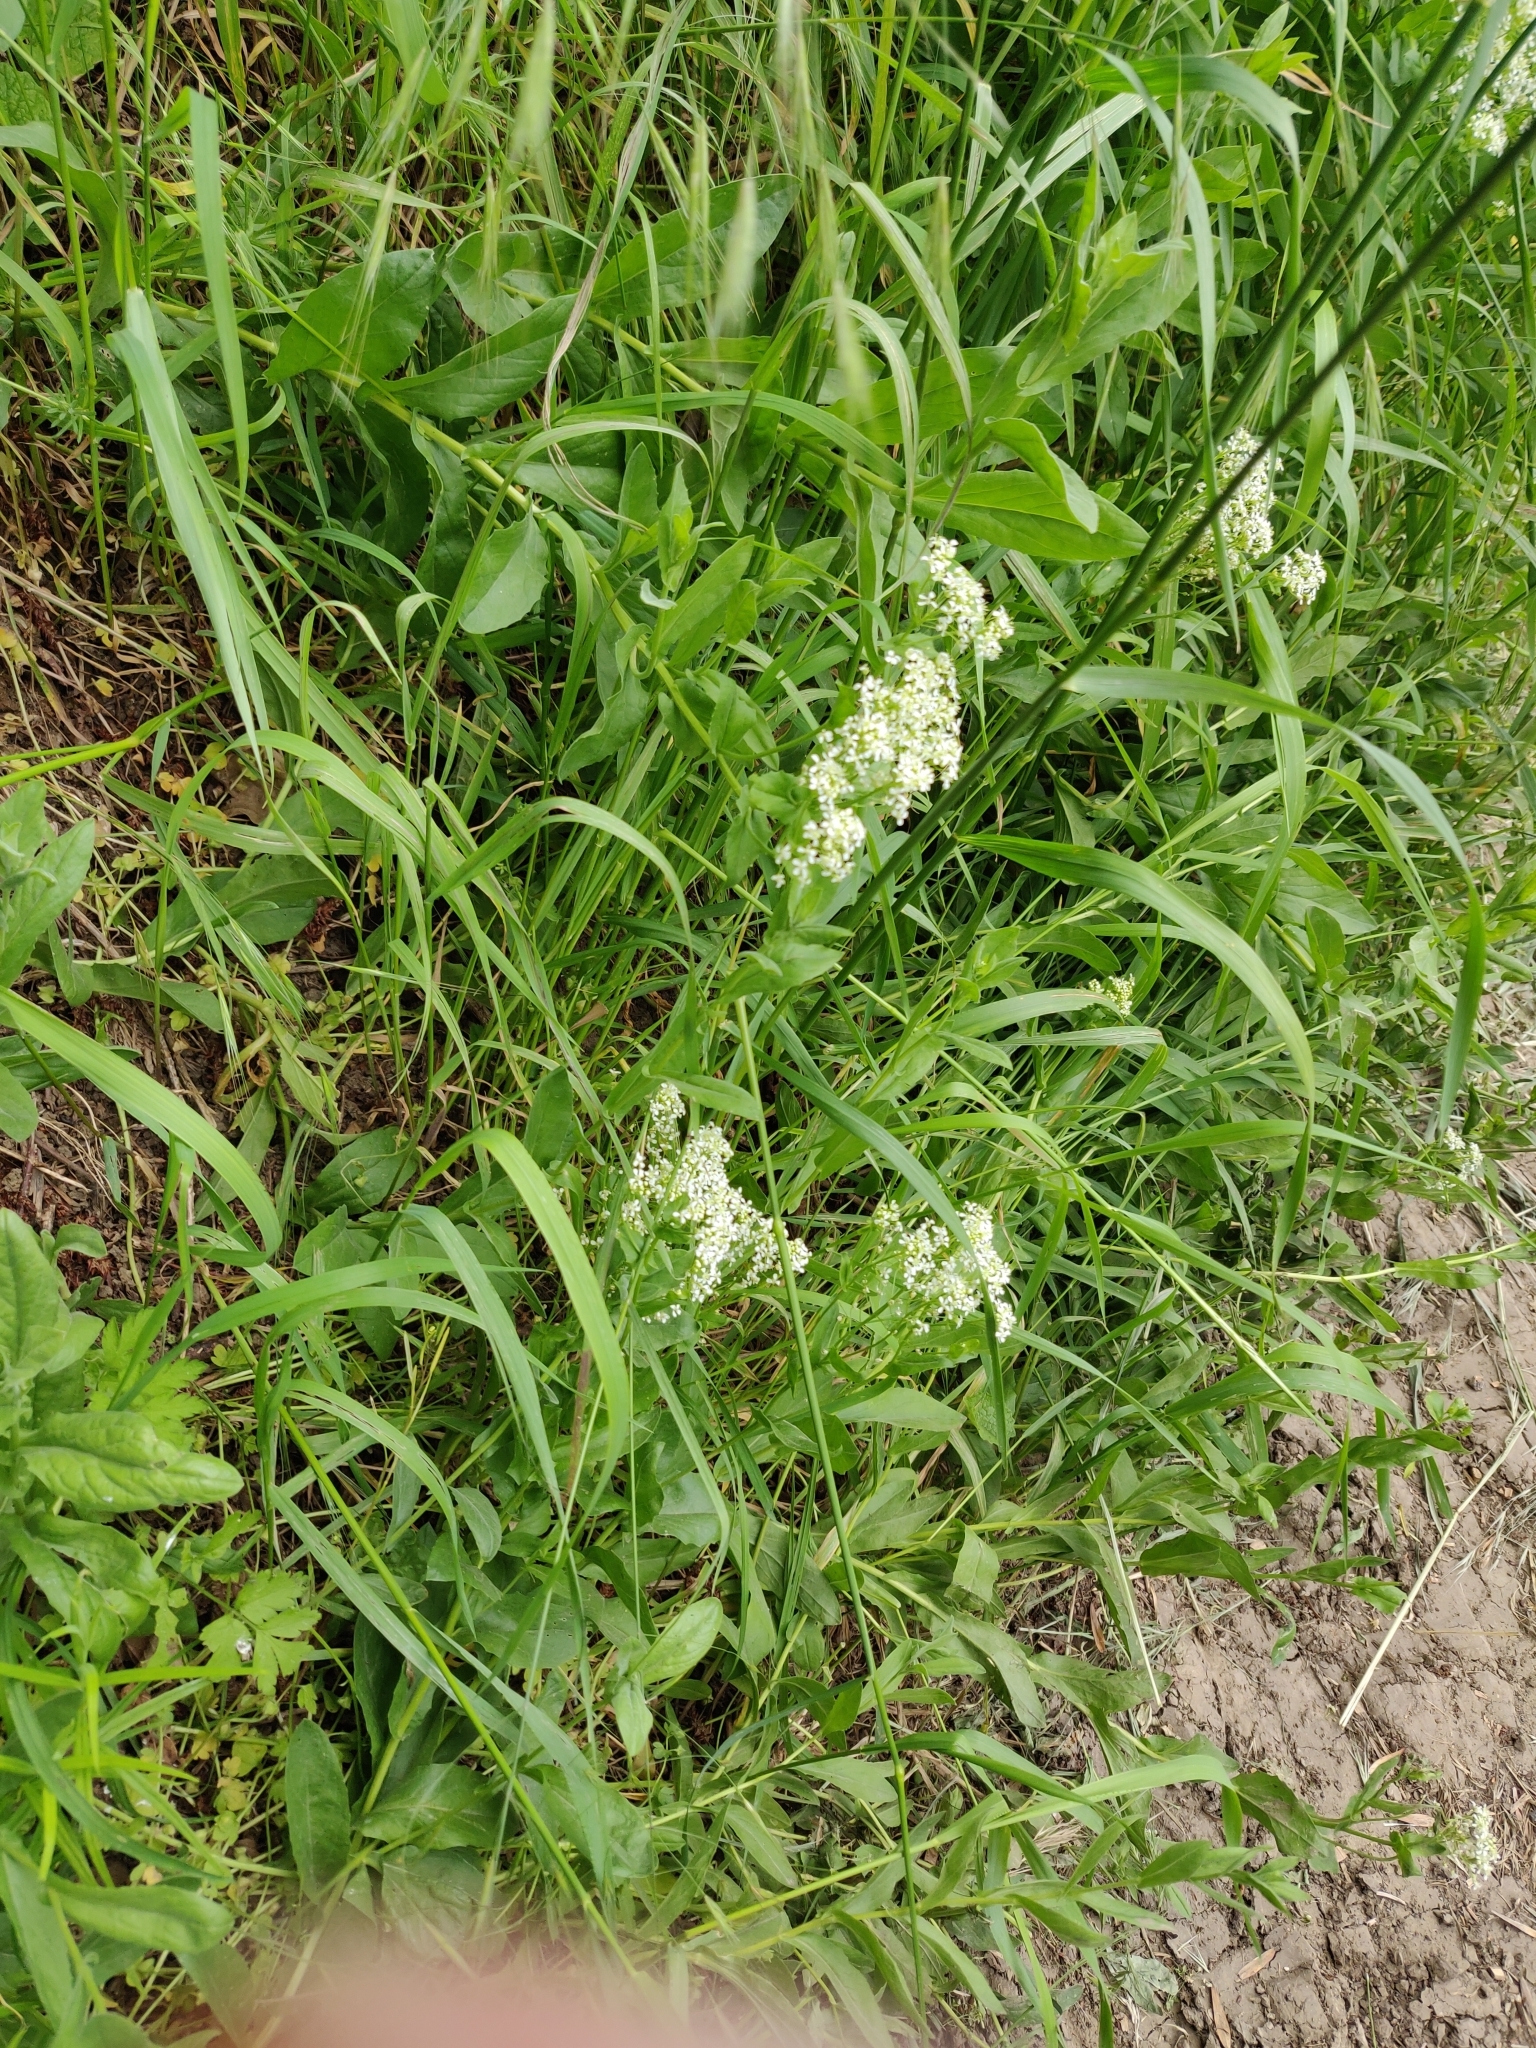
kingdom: Plantae
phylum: Tracheophyta
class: Magnoliopsida
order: Brassicales
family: Brassicaceae
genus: Lepidium
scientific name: Lepidium draba
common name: Hoary cress
